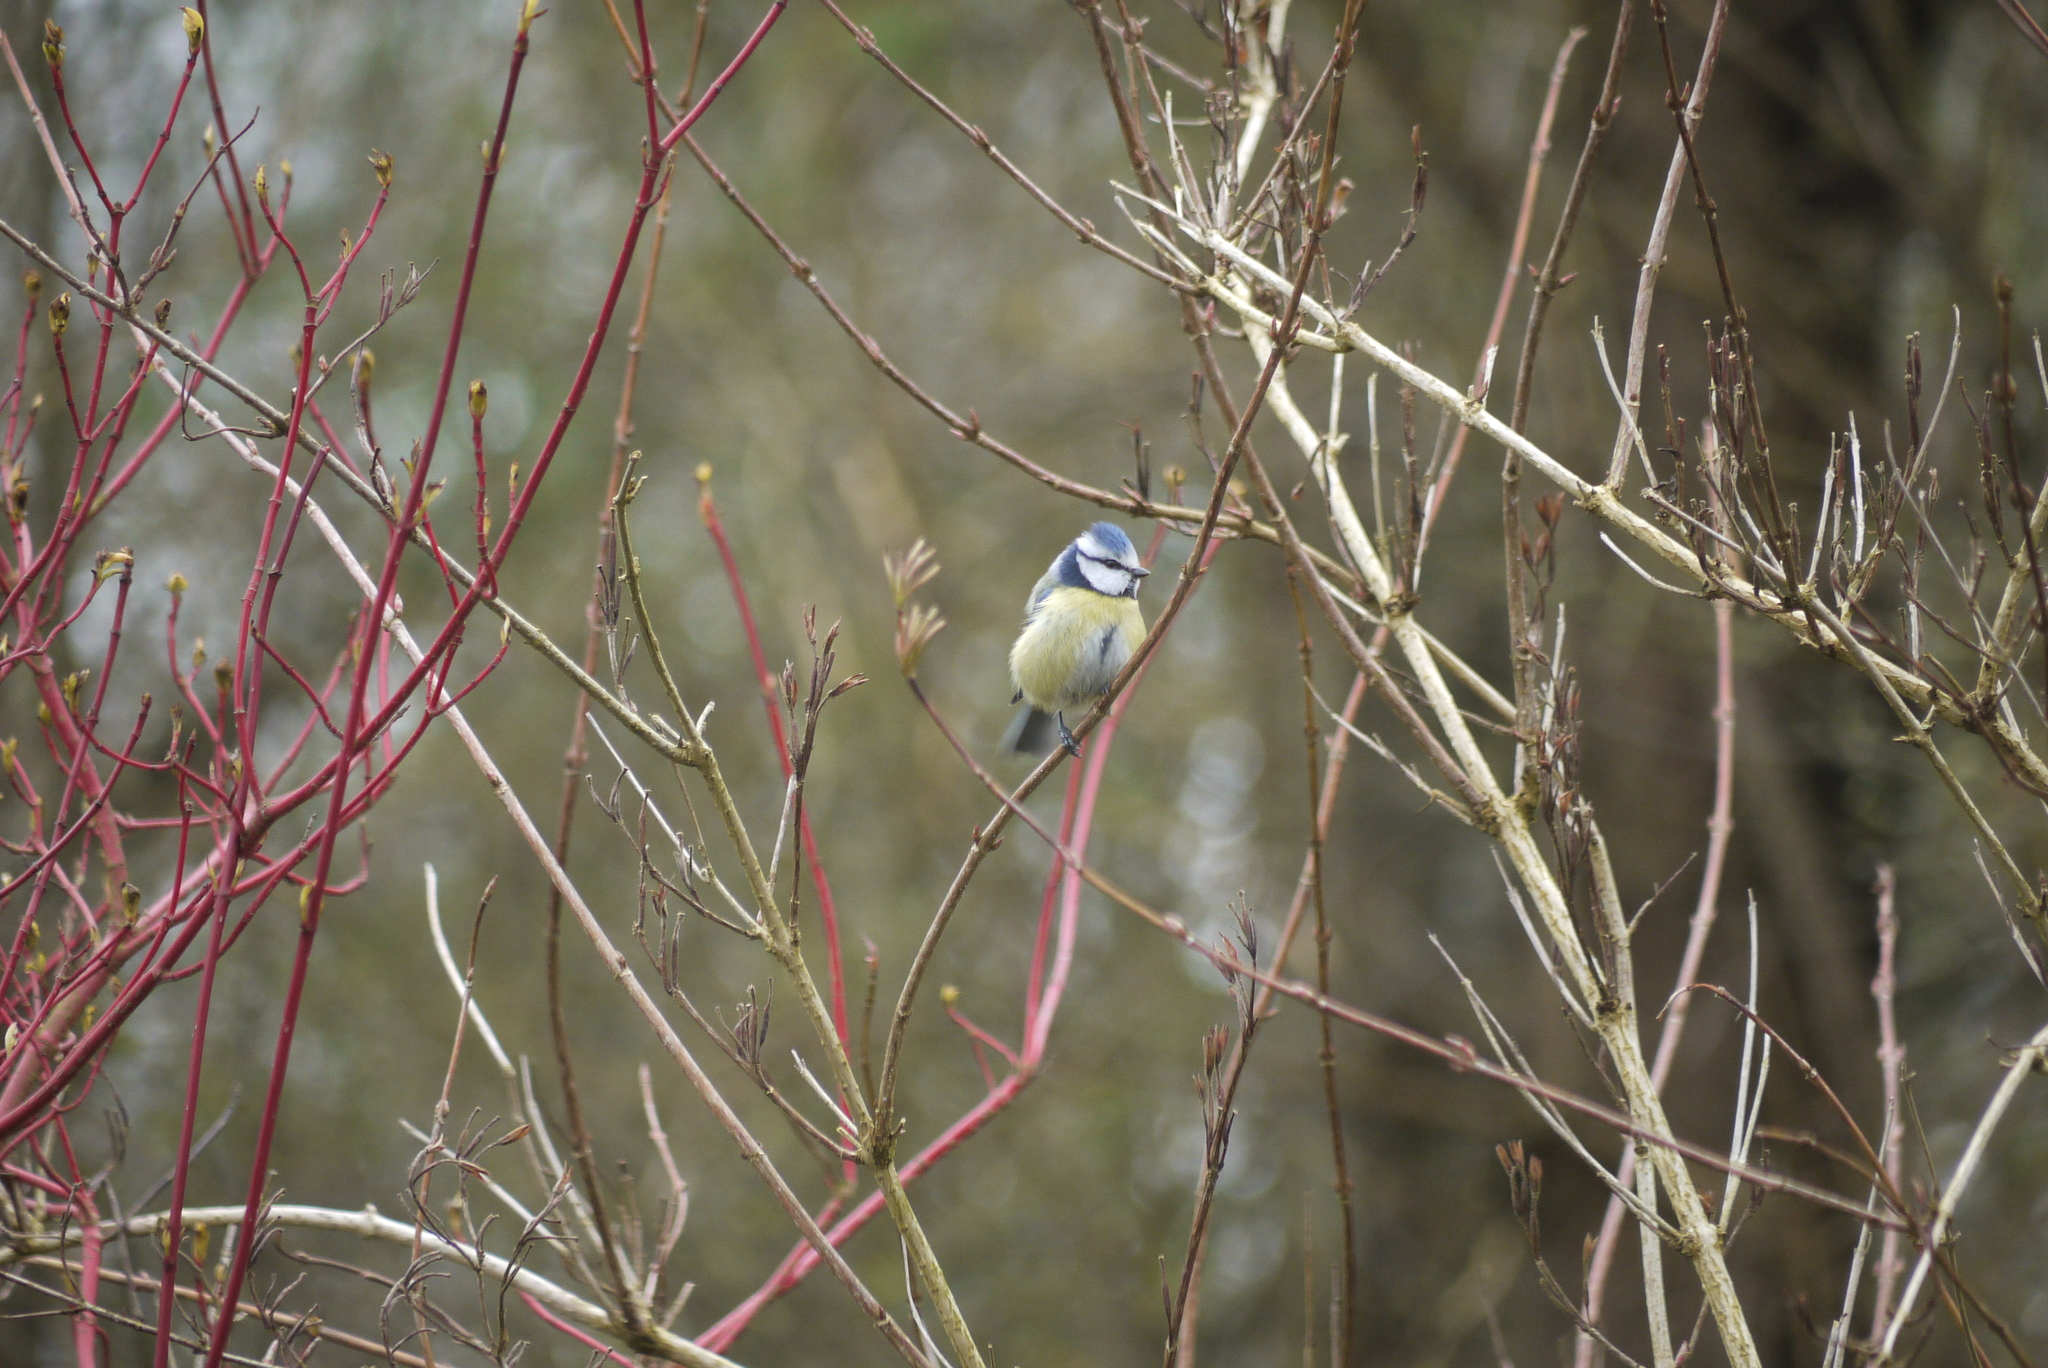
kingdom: Animalia
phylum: Chordata
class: Aves
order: Passeriformes
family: Paridae
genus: Cyanistes
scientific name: Cyanistes caeruleus
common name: Eurasian blue tit
